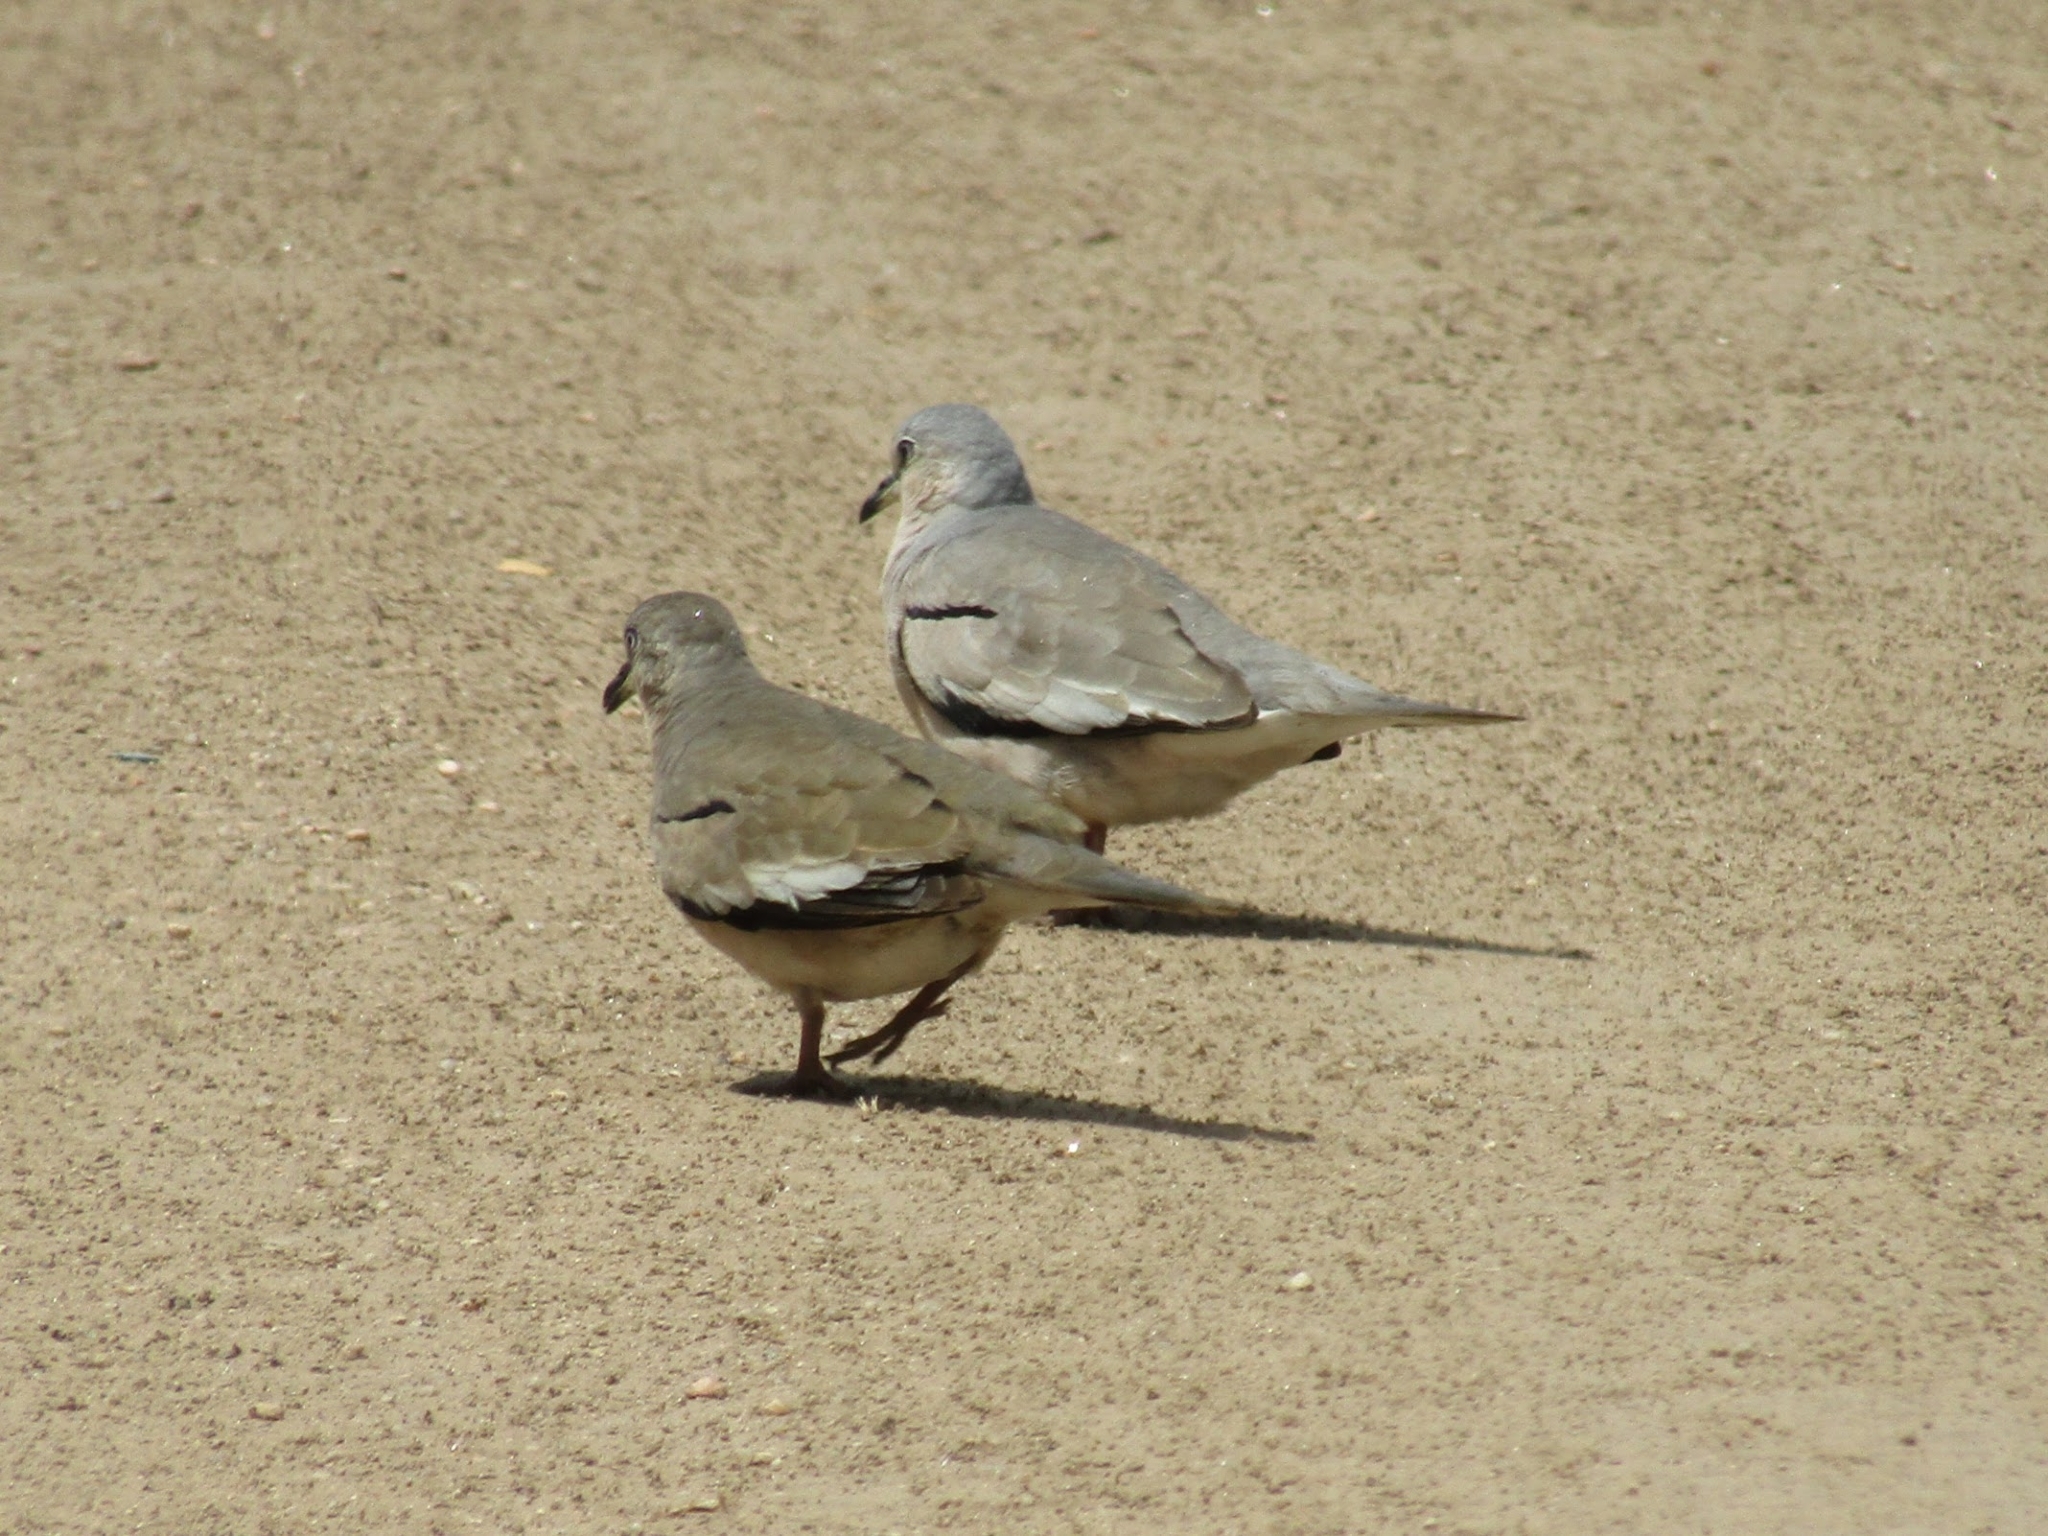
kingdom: Animalia
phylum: Chordata
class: Aves
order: Columbiformes
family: Columbidae
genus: Columbina
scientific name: Columbina picui
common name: Picui ground dove
